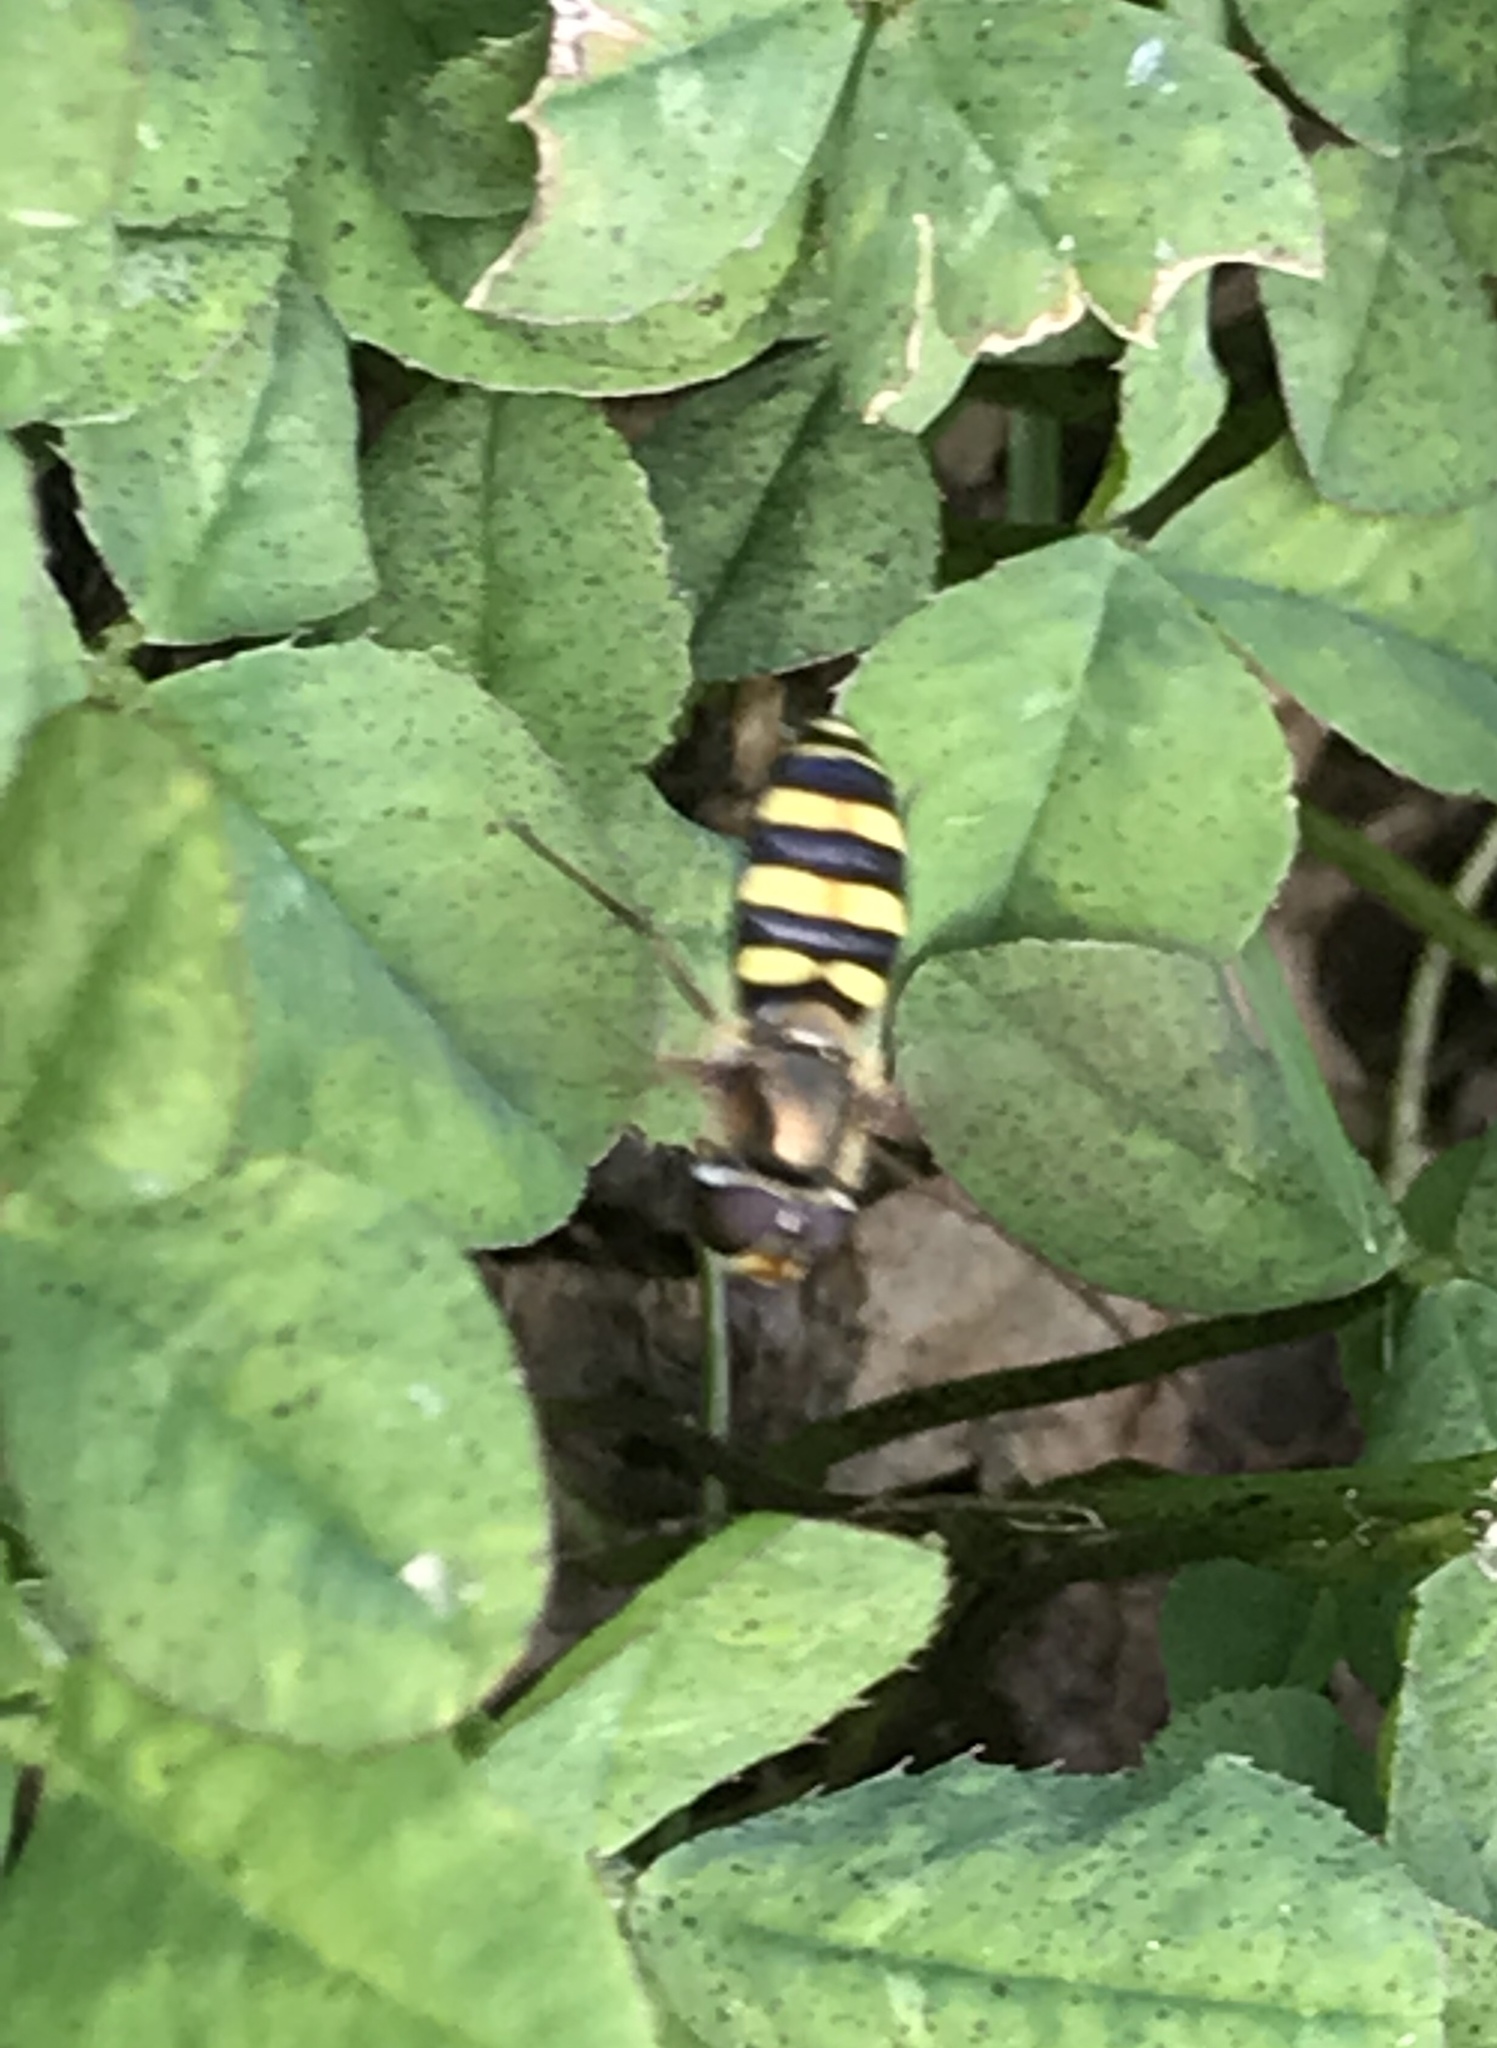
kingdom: Animalia
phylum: Arthropoda
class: Insecta
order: Diptera
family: Syrphidae
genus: Eupeodes
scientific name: Eupeodes
